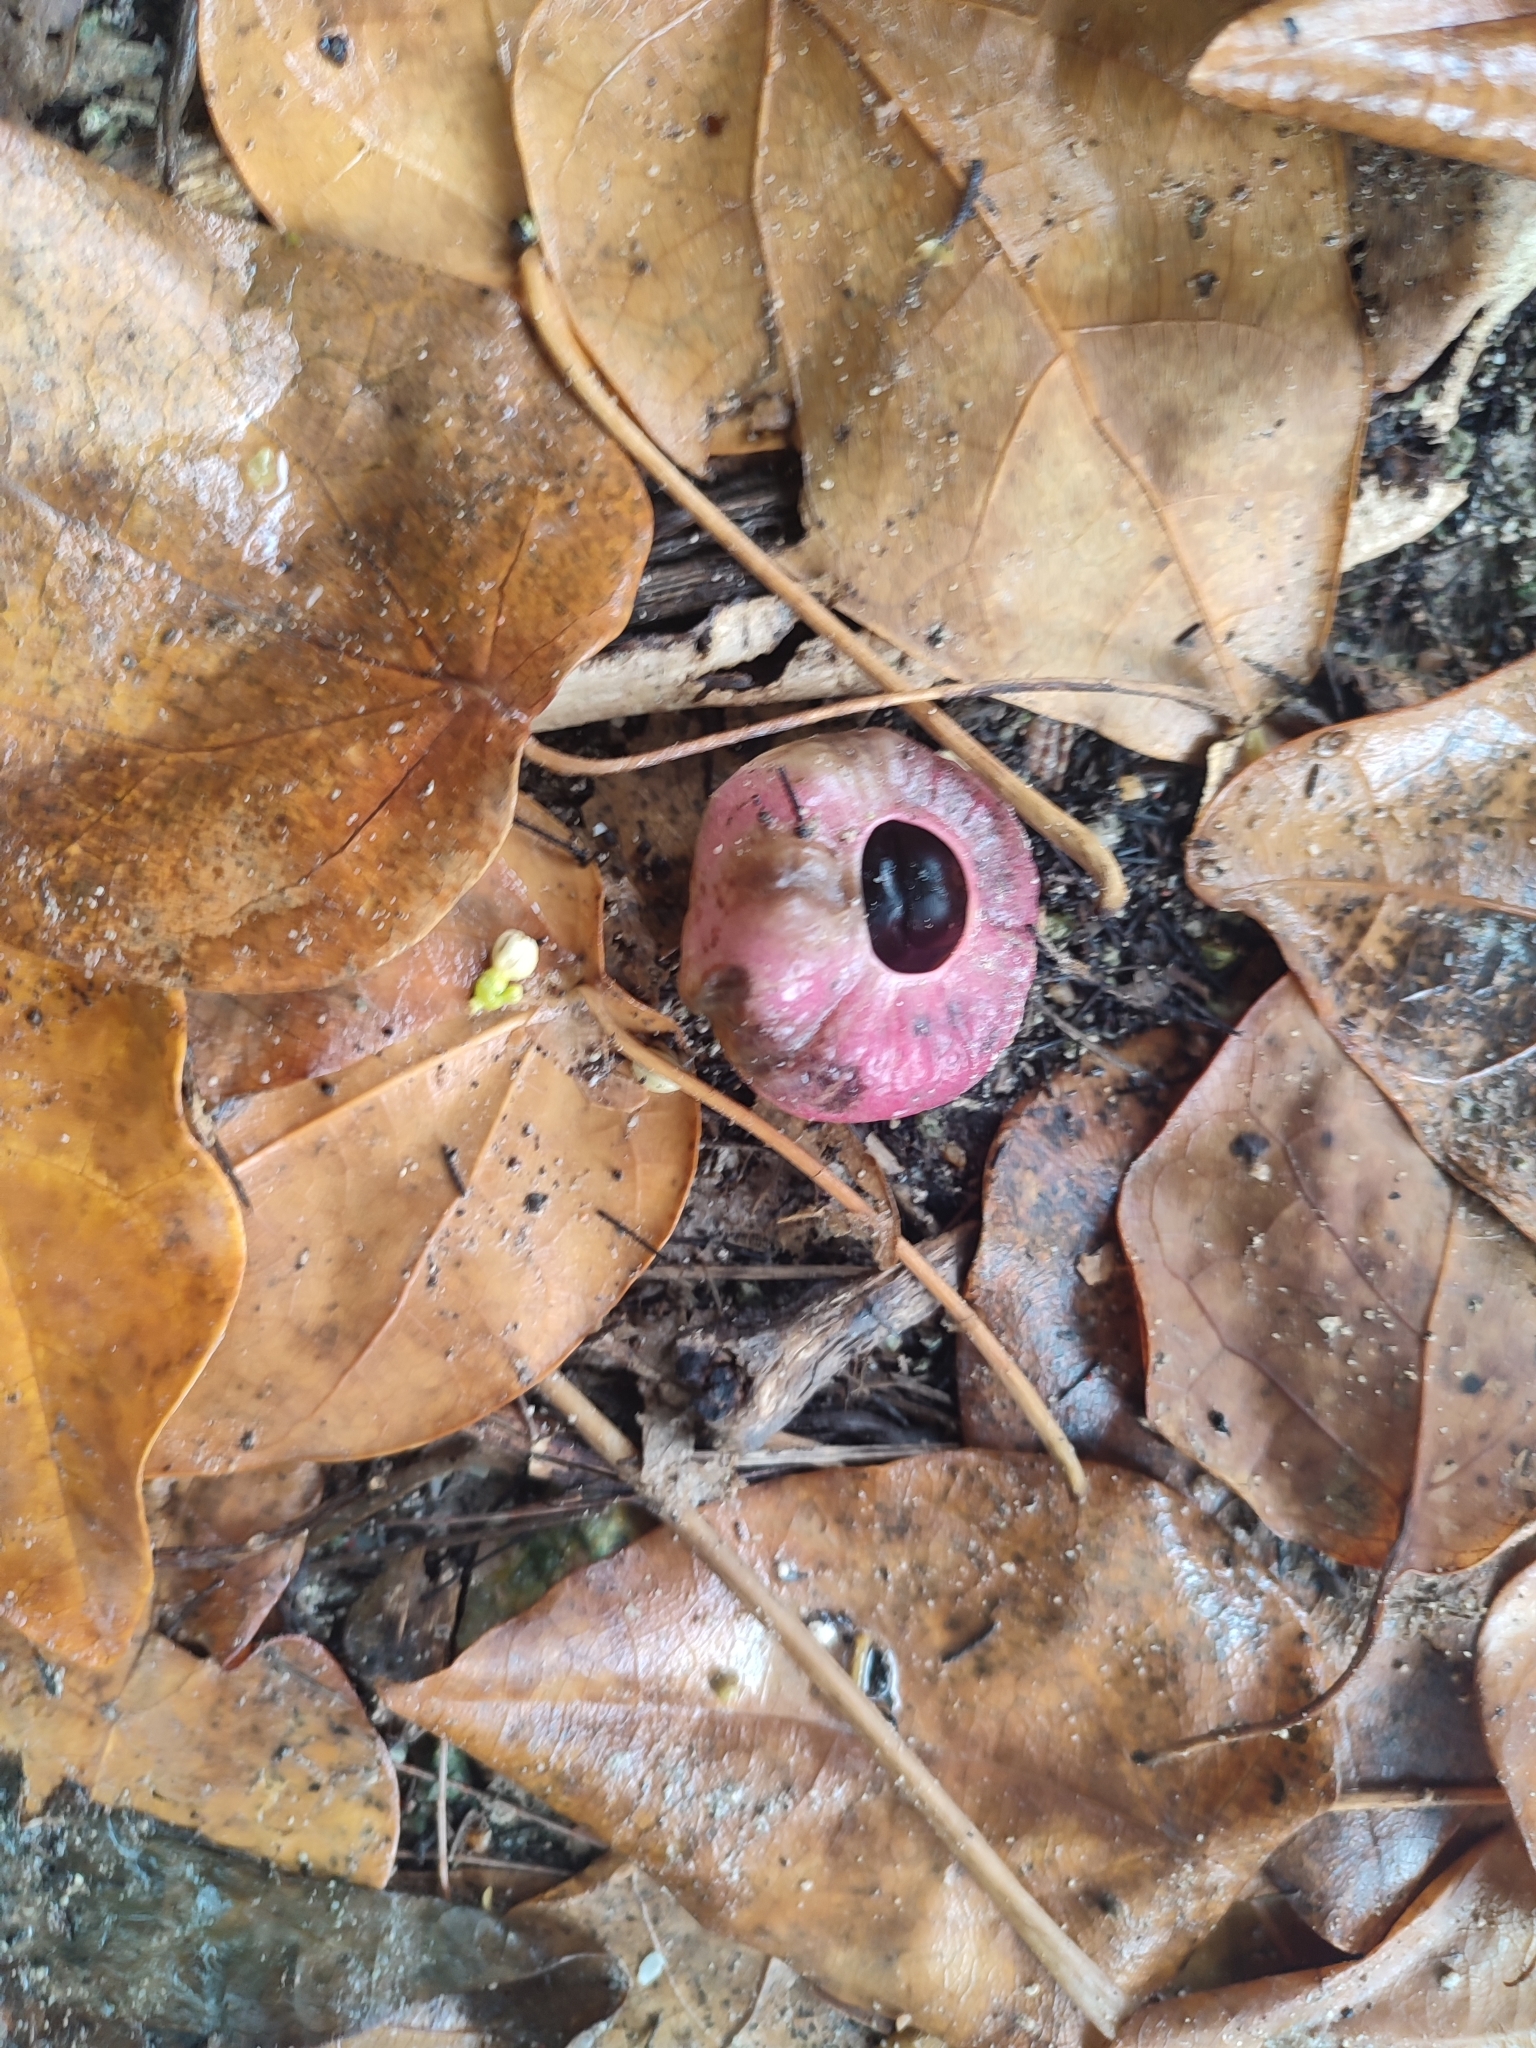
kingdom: Plantae
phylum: Tracheophyta
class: Magnoliopsida
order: Laurales
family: Hernandiaceae
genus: Hernandia
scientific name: Hernandia nymphaeifolia
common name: Sea hearse
